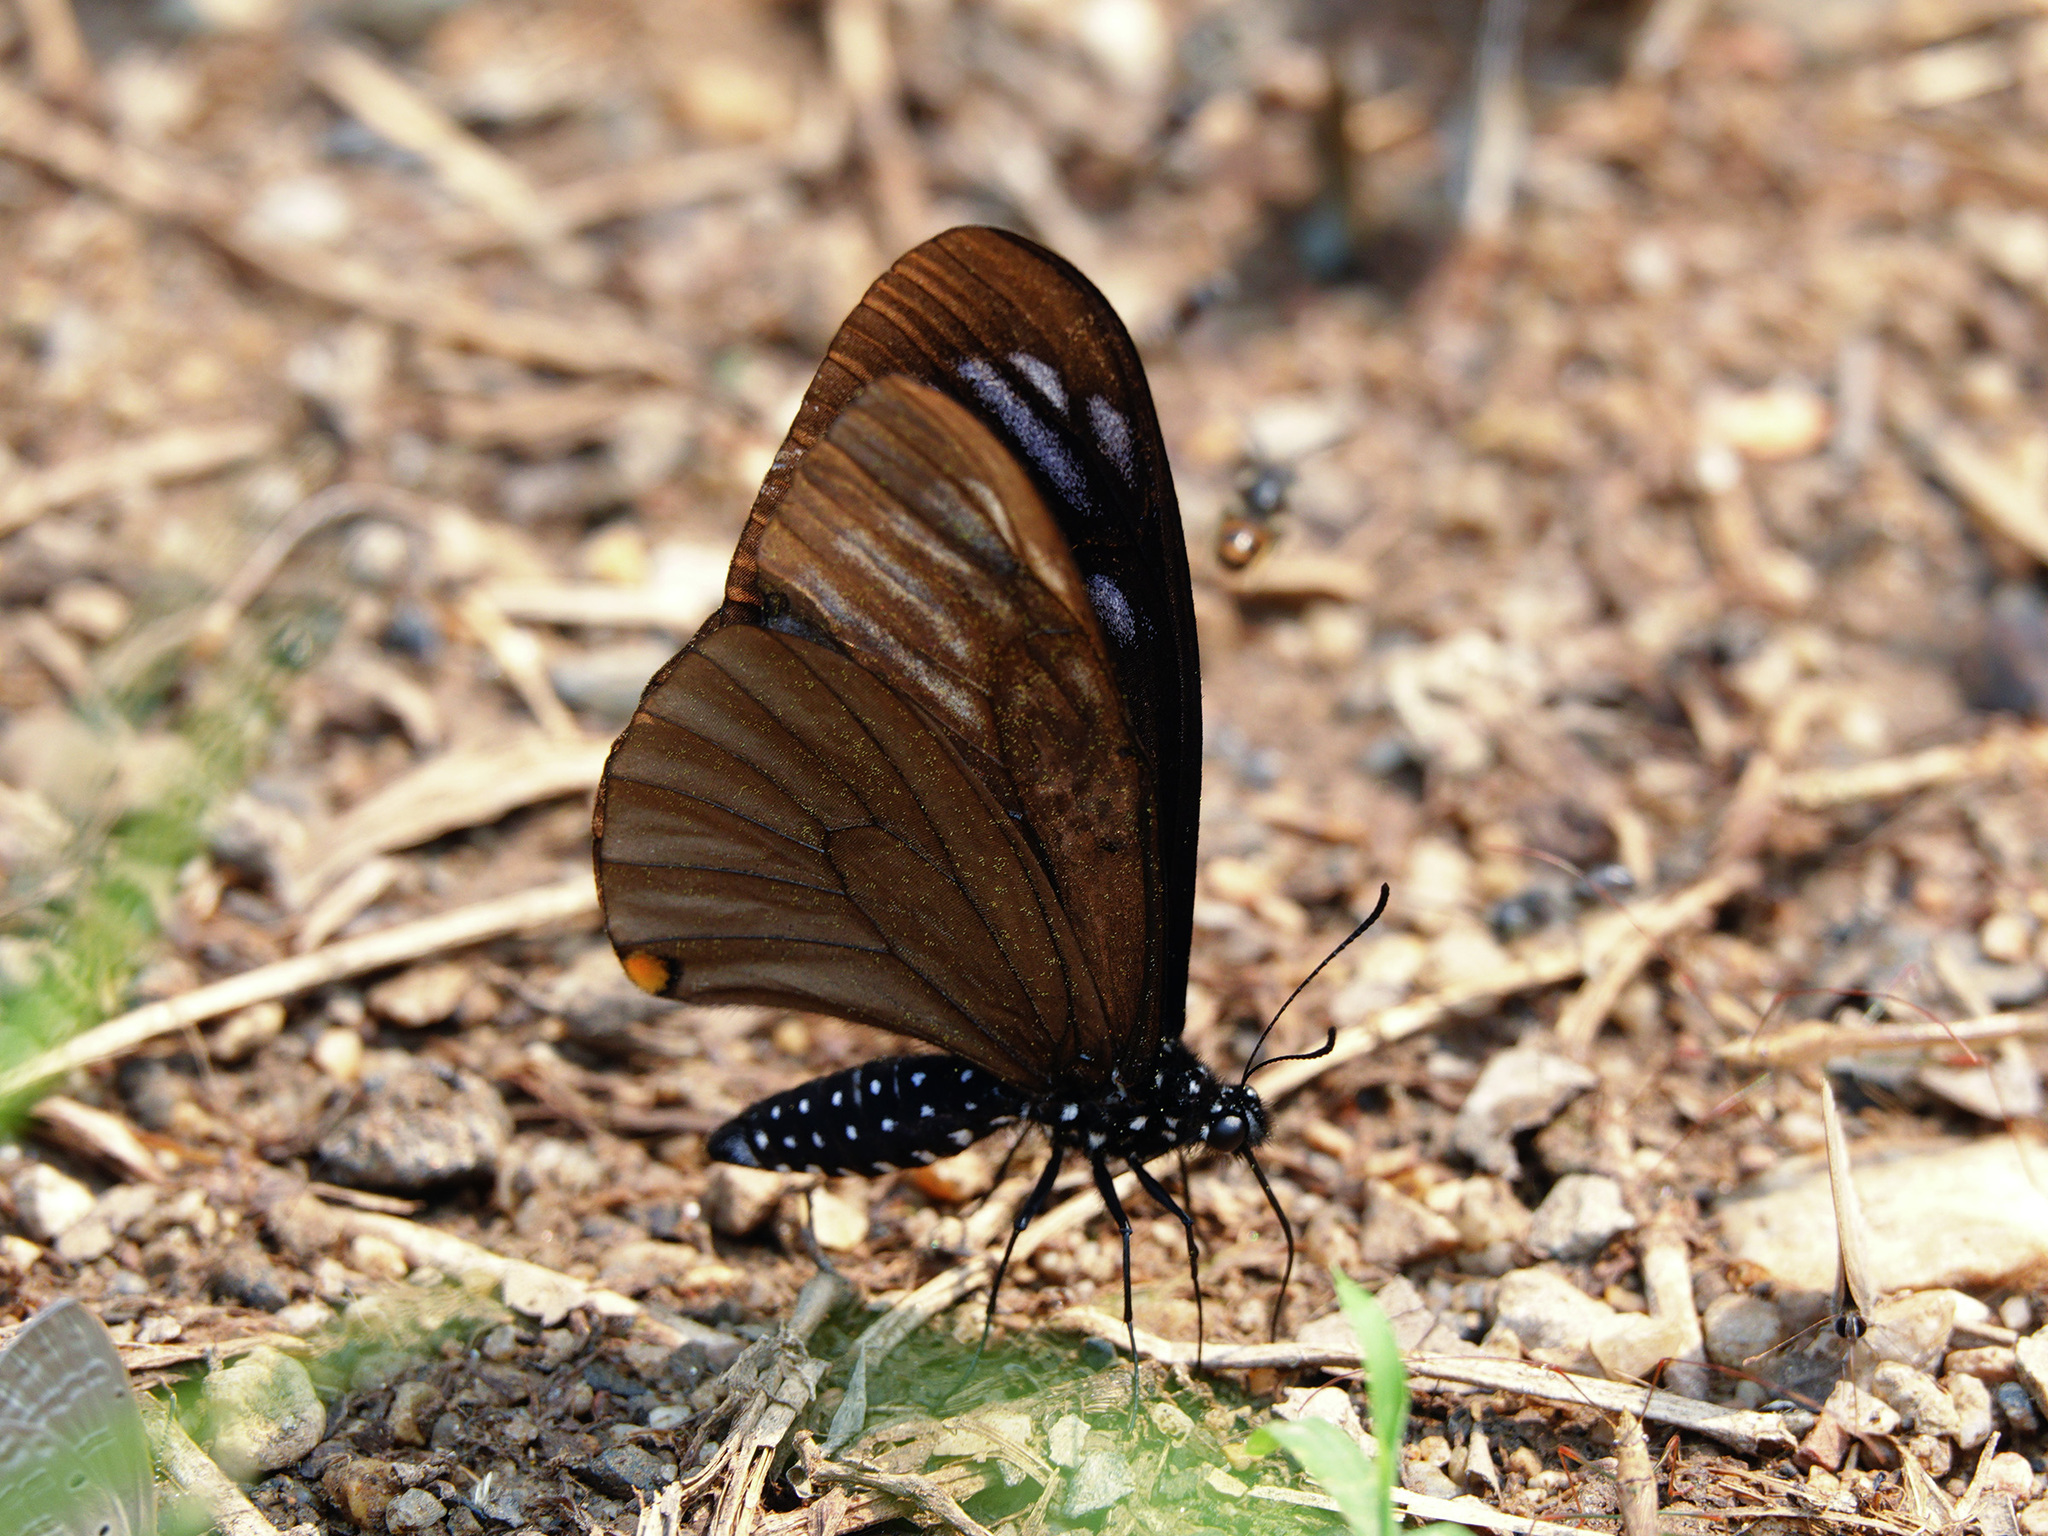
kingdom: Animalia
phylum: Arthropoda
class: Insecta
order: Lepidoptera
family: Papilionidae
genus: Papilio
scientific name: Papilio slateri
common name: Blue striped mime swallowtail
